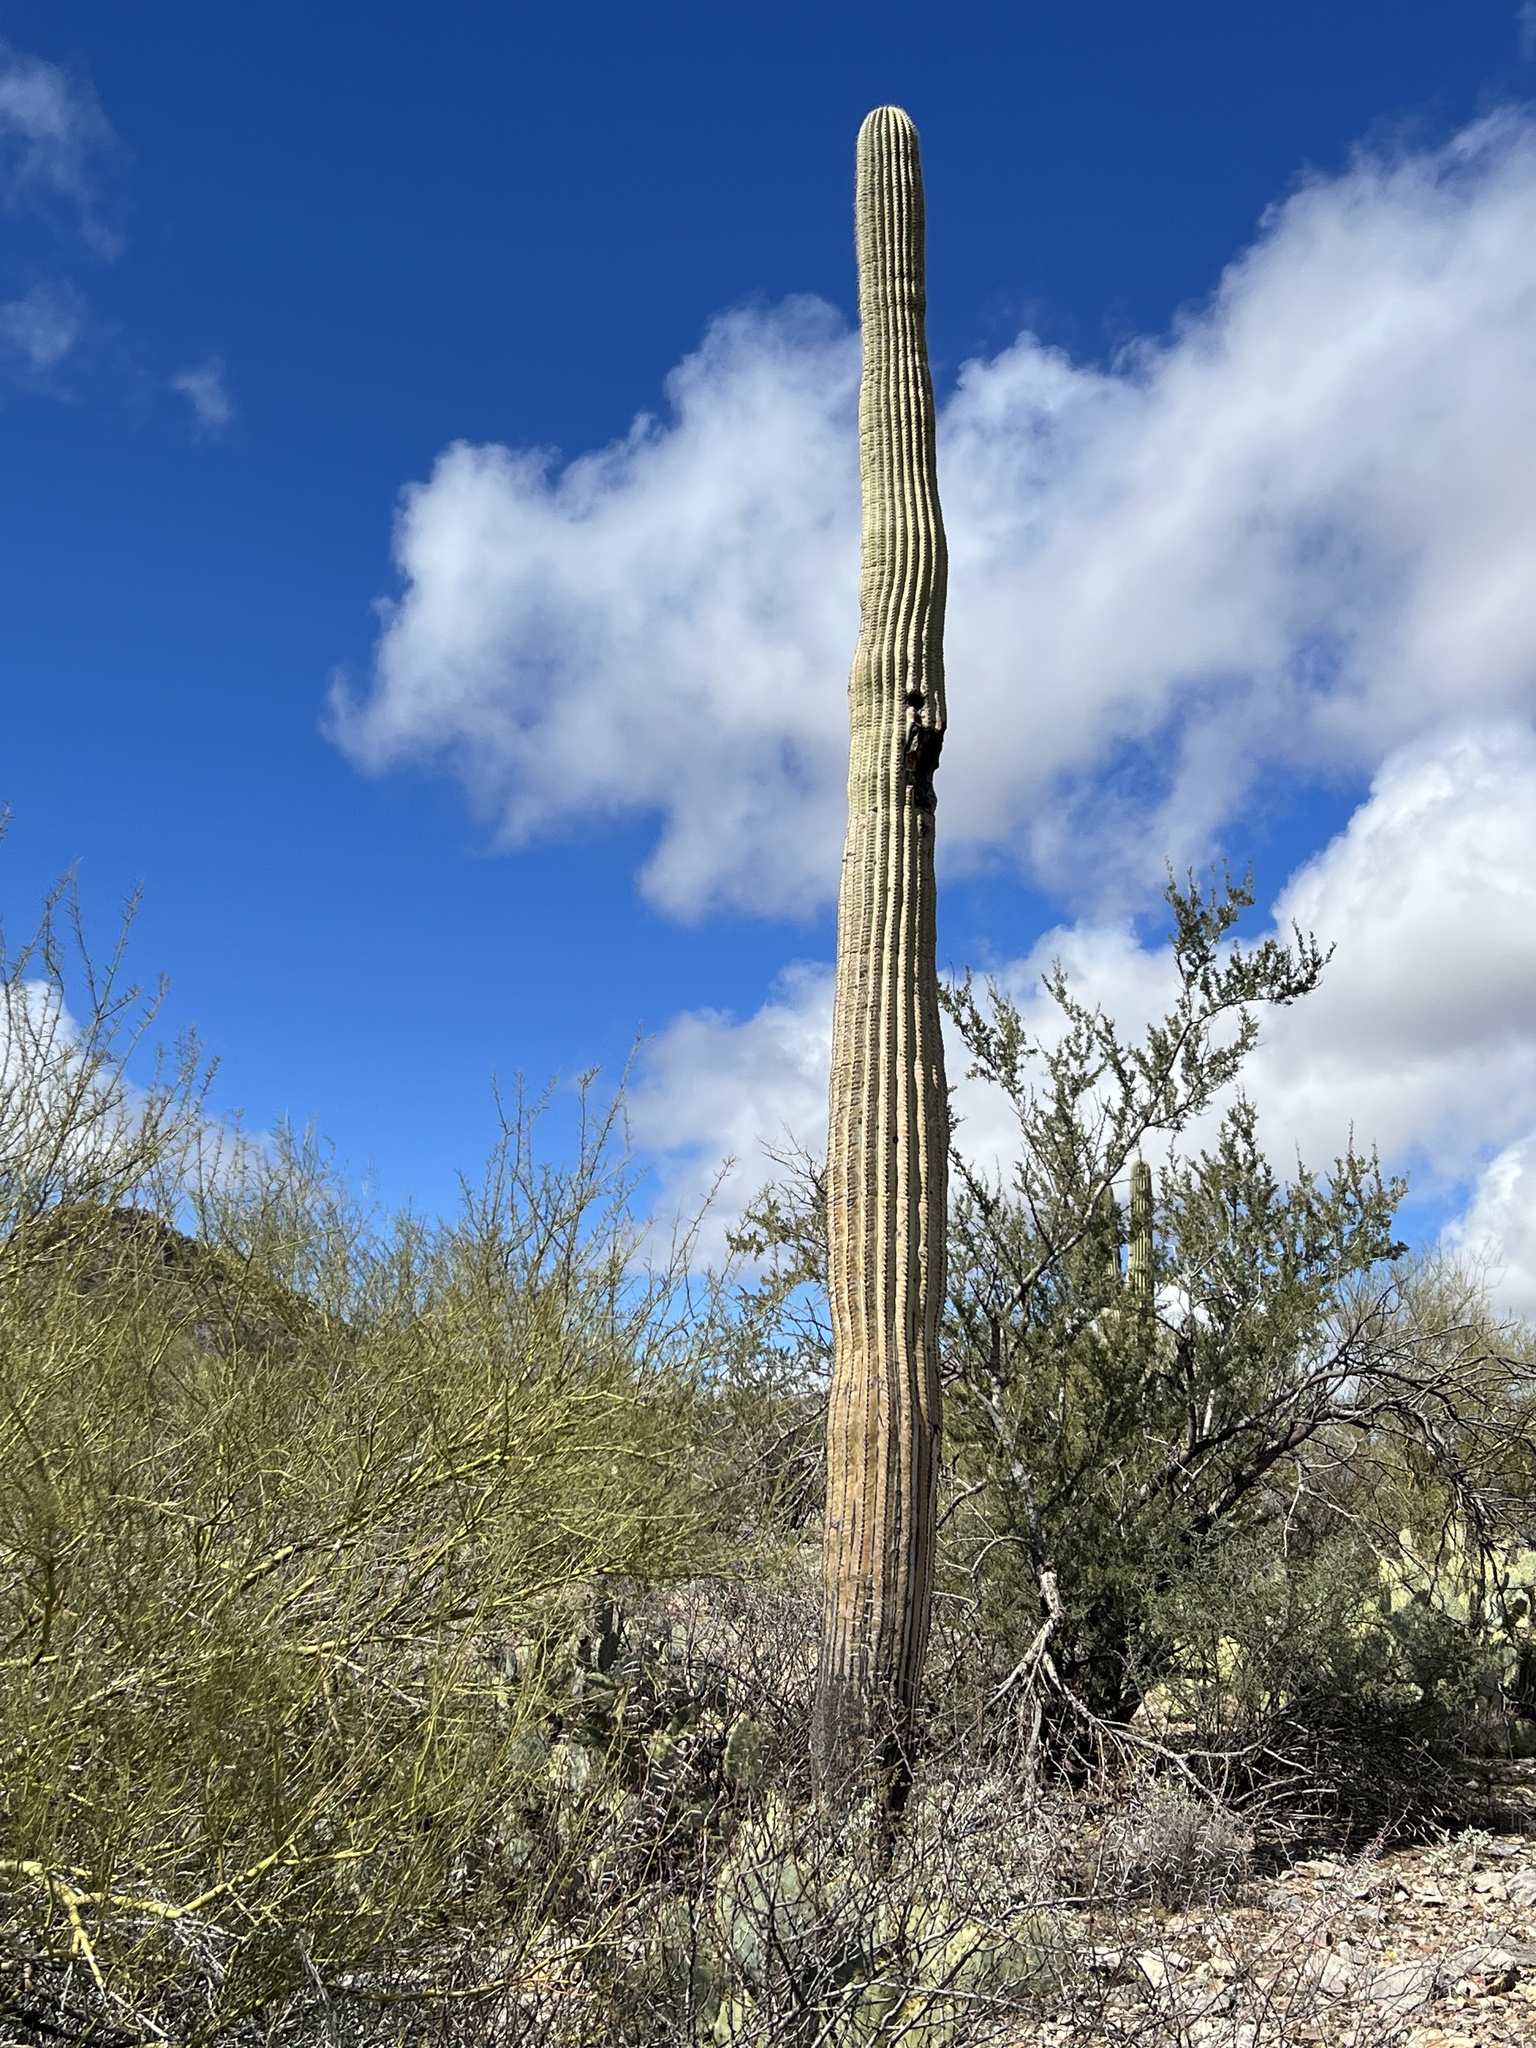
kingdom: Plantae
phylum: Tracheophyta
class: Magnoliopsida
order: Caryophyllales
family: Cactaceae
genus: Carnegiea
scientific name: Carnegiea gigantea
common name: Saguaro
